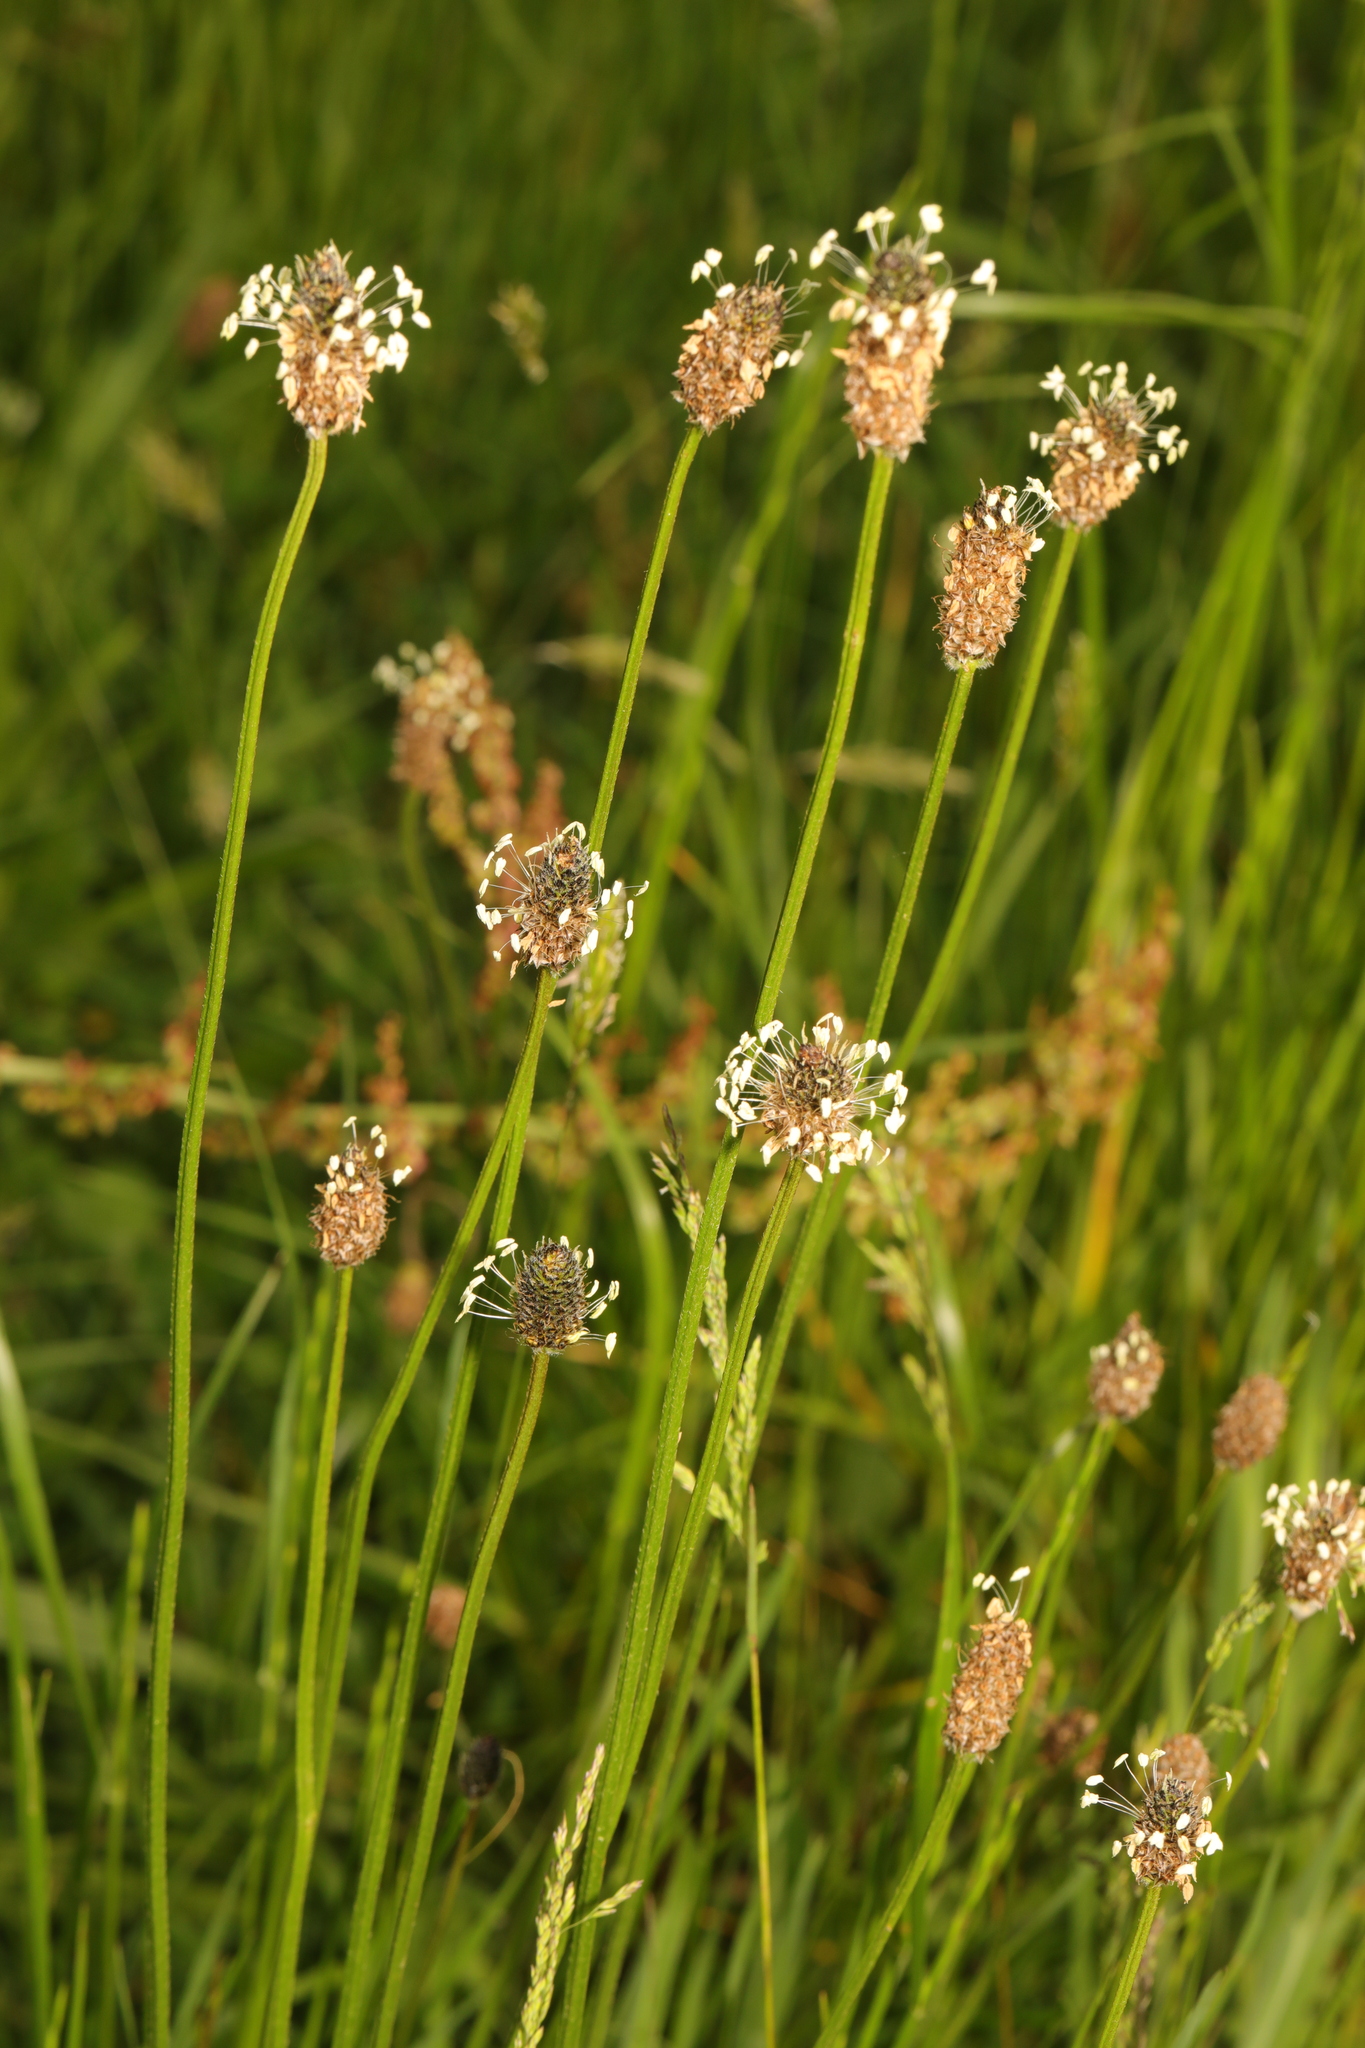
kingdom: Plantae
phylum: Tracheophyta
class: Magnoliopsida
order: Lamiales
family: Plantaginaceae
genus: Plantago
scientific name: Plantago lanceolata
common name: Ribwort plantain
